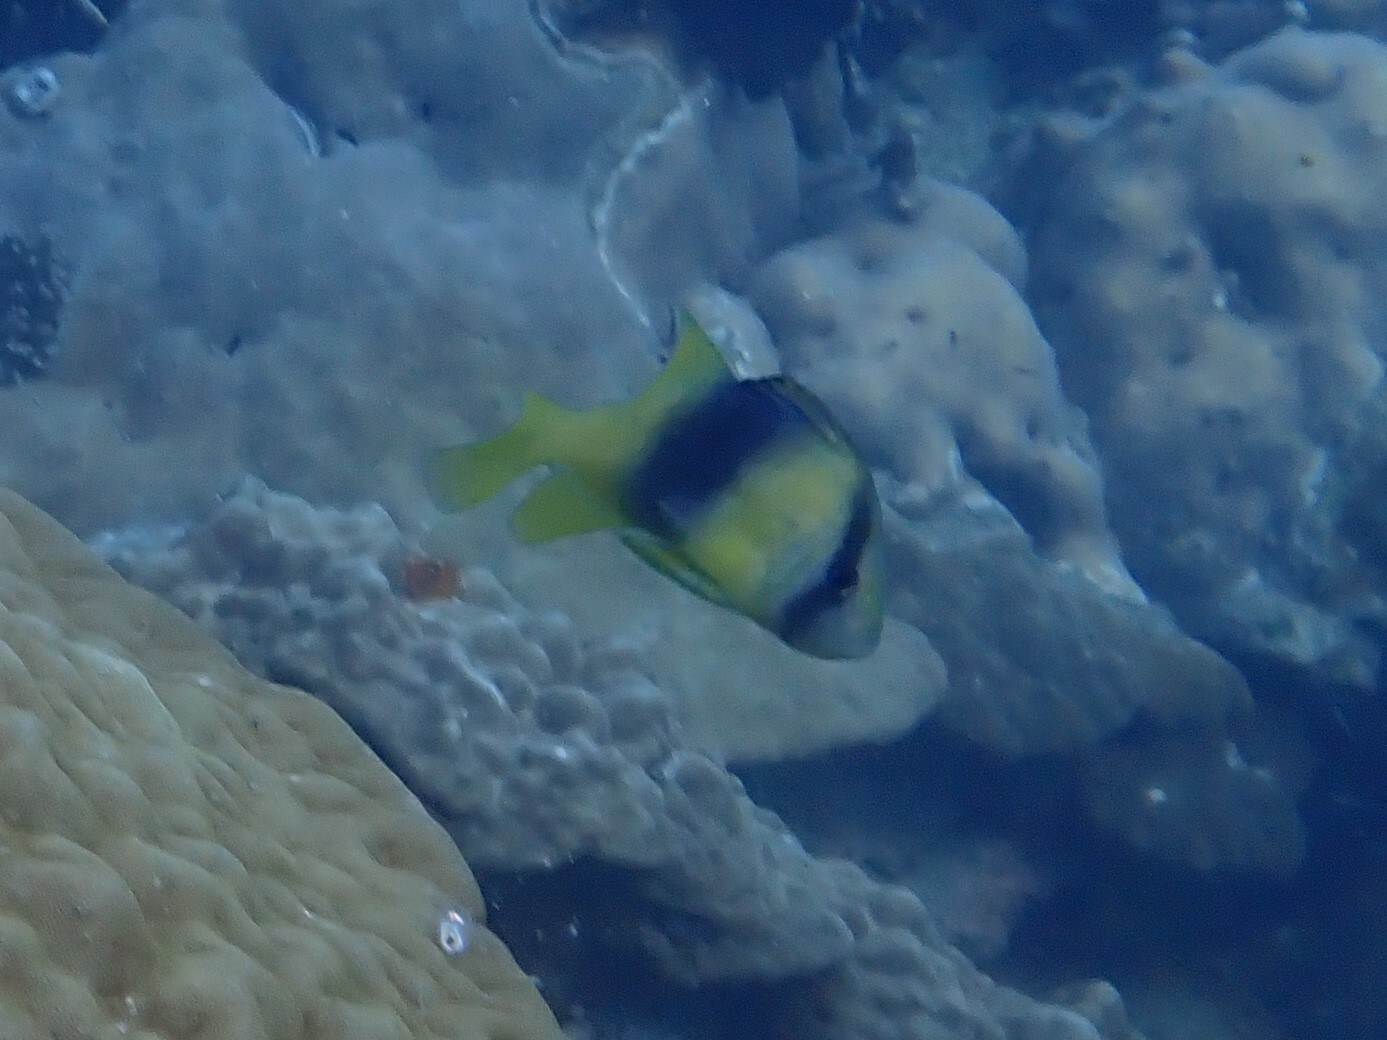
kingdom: Animalia
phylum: Chordata
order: Perciformes
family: Serranidae
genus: Diploprion
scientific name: Diploprion bifasciatum
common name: Barred soapfish
